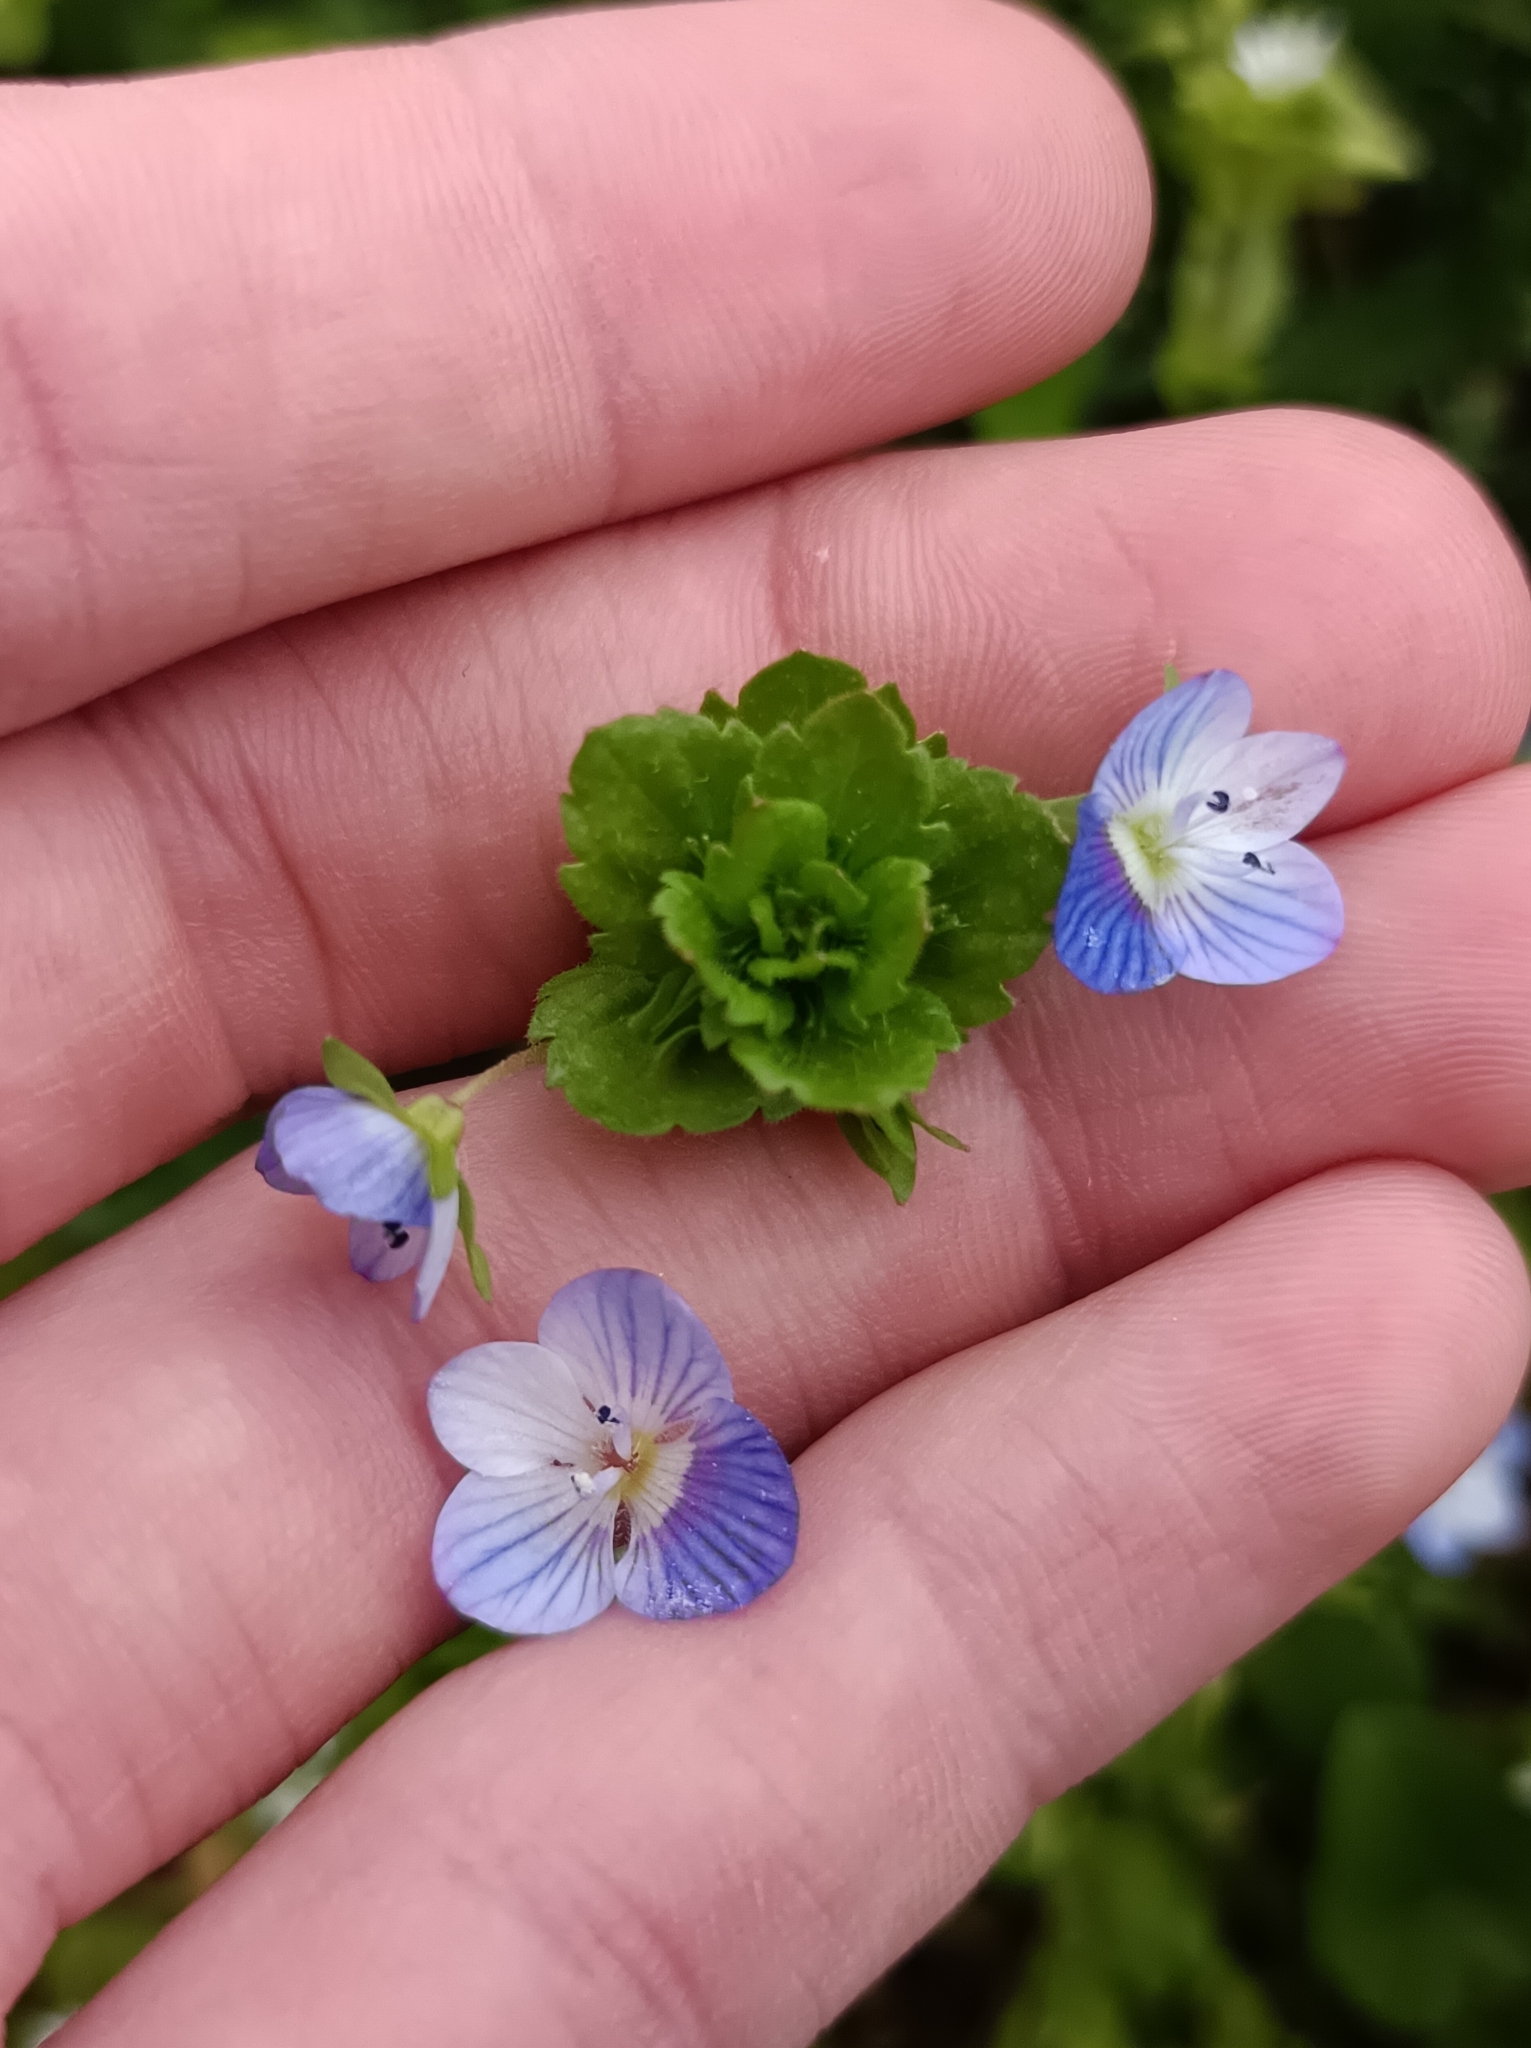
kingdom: Plantae
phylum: Tracheophyta
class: Magnoliopsida
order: Lamiales
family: Plantaginaceae
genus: Veronica
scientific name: Veronica persica
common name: Common field-speedwell
